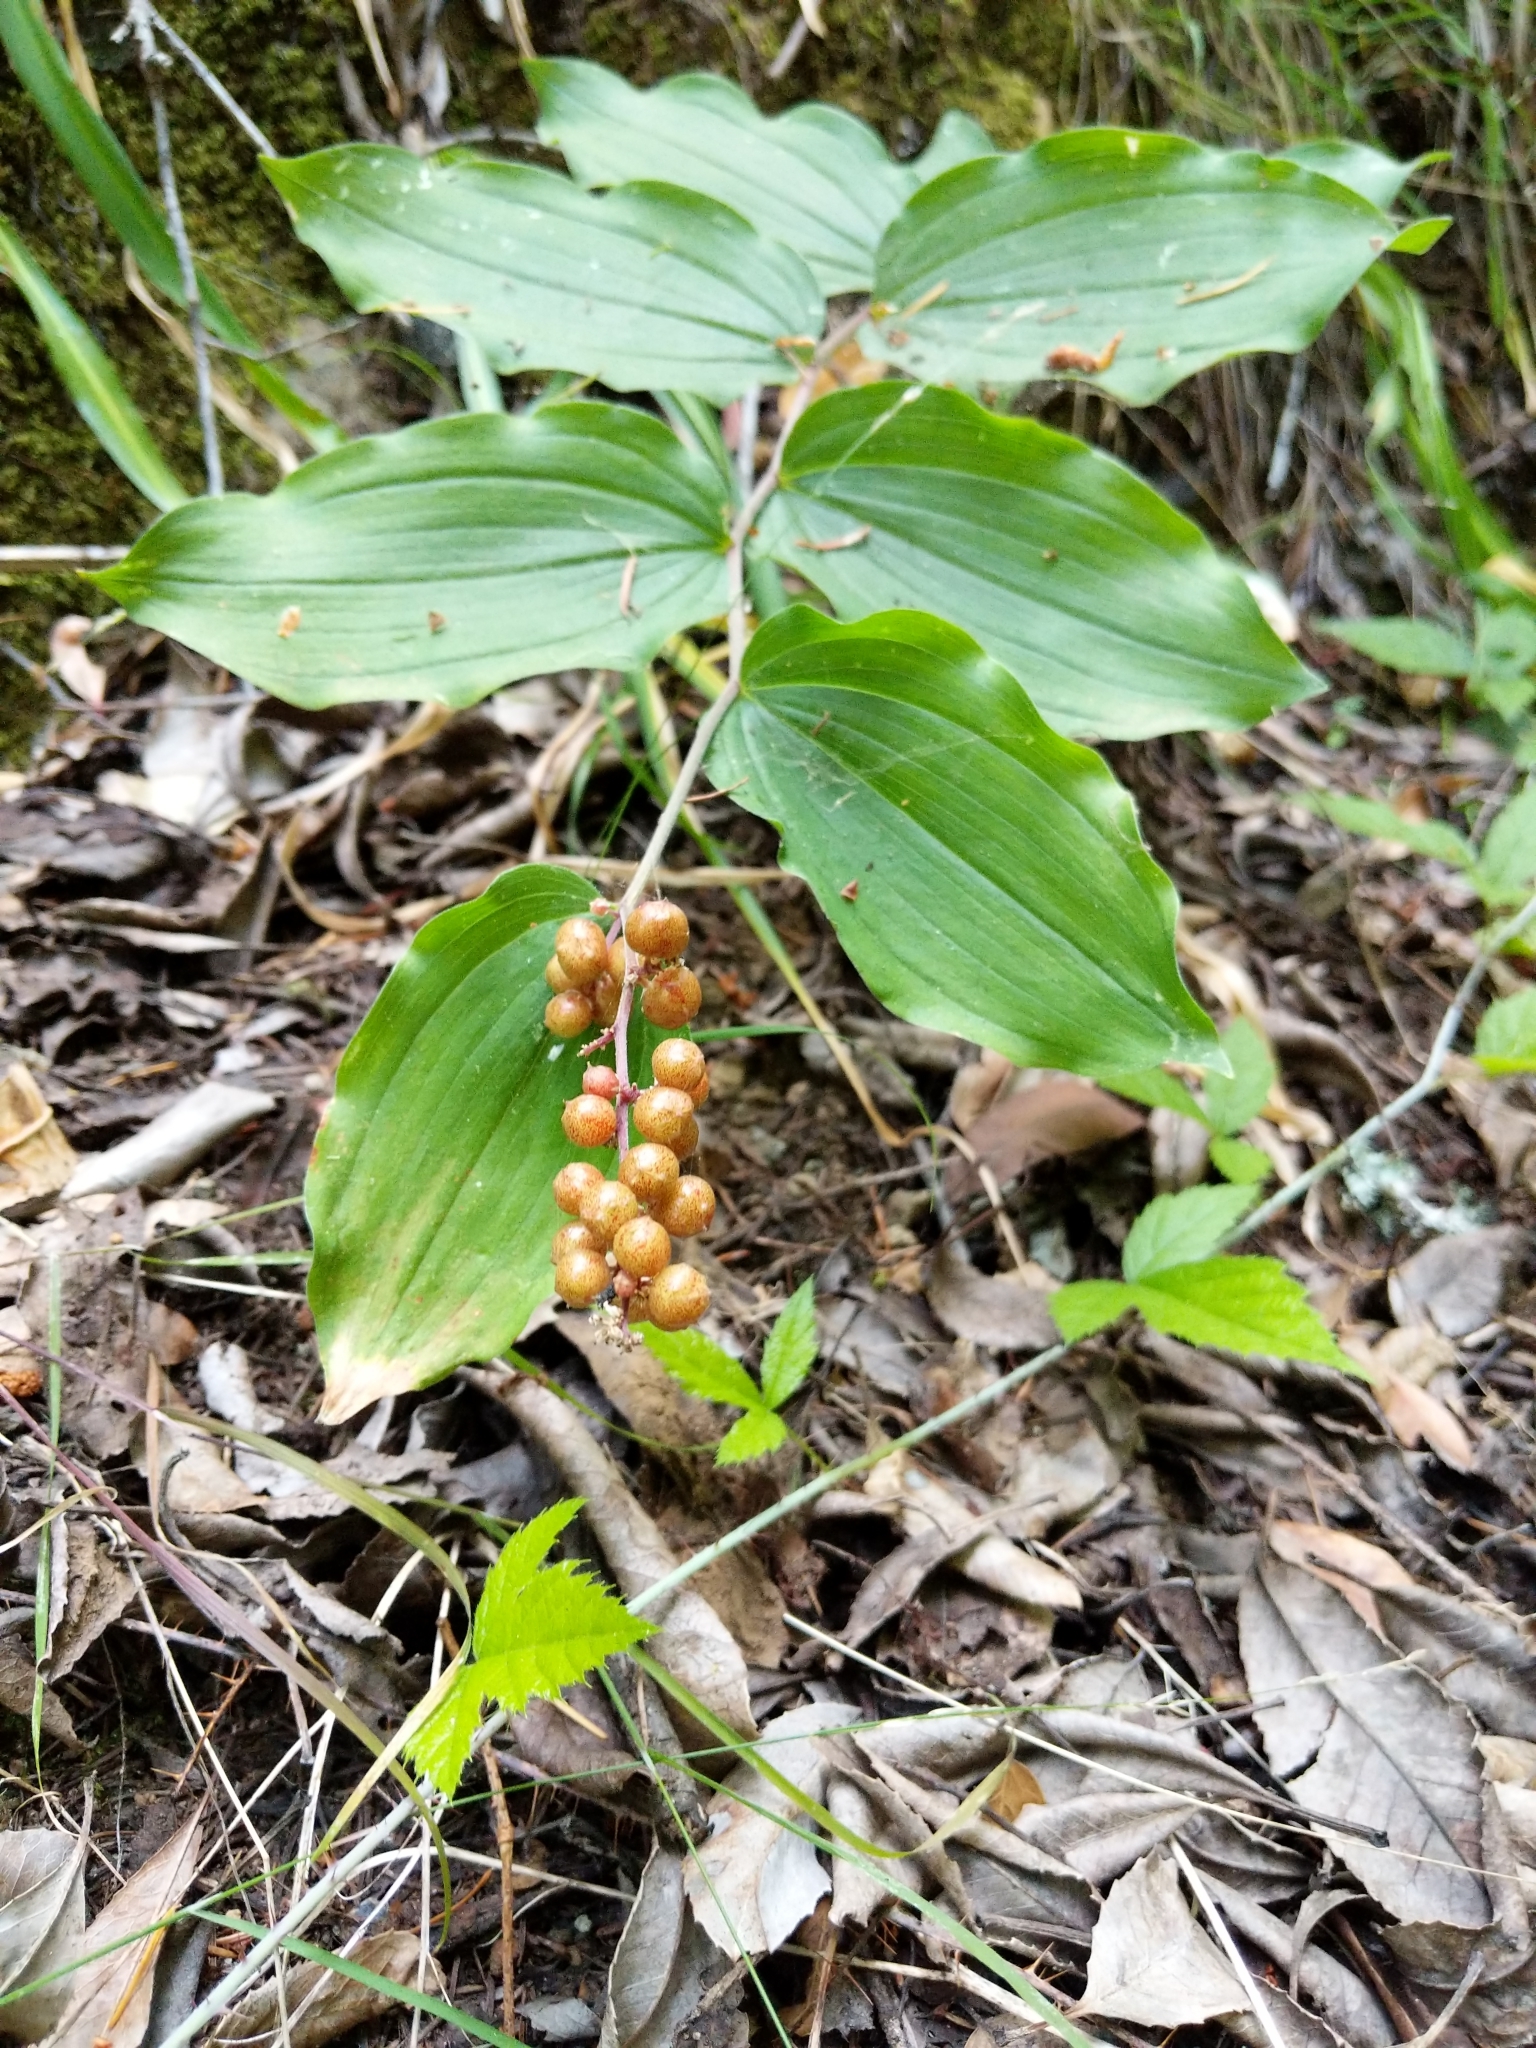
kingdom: Plantae
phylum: Tracheophyta
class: Liliopsida
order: Asparagales
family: Asparagaceae
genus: Maianthemum
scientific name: Maianthemum racemosum
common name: False spikenard
